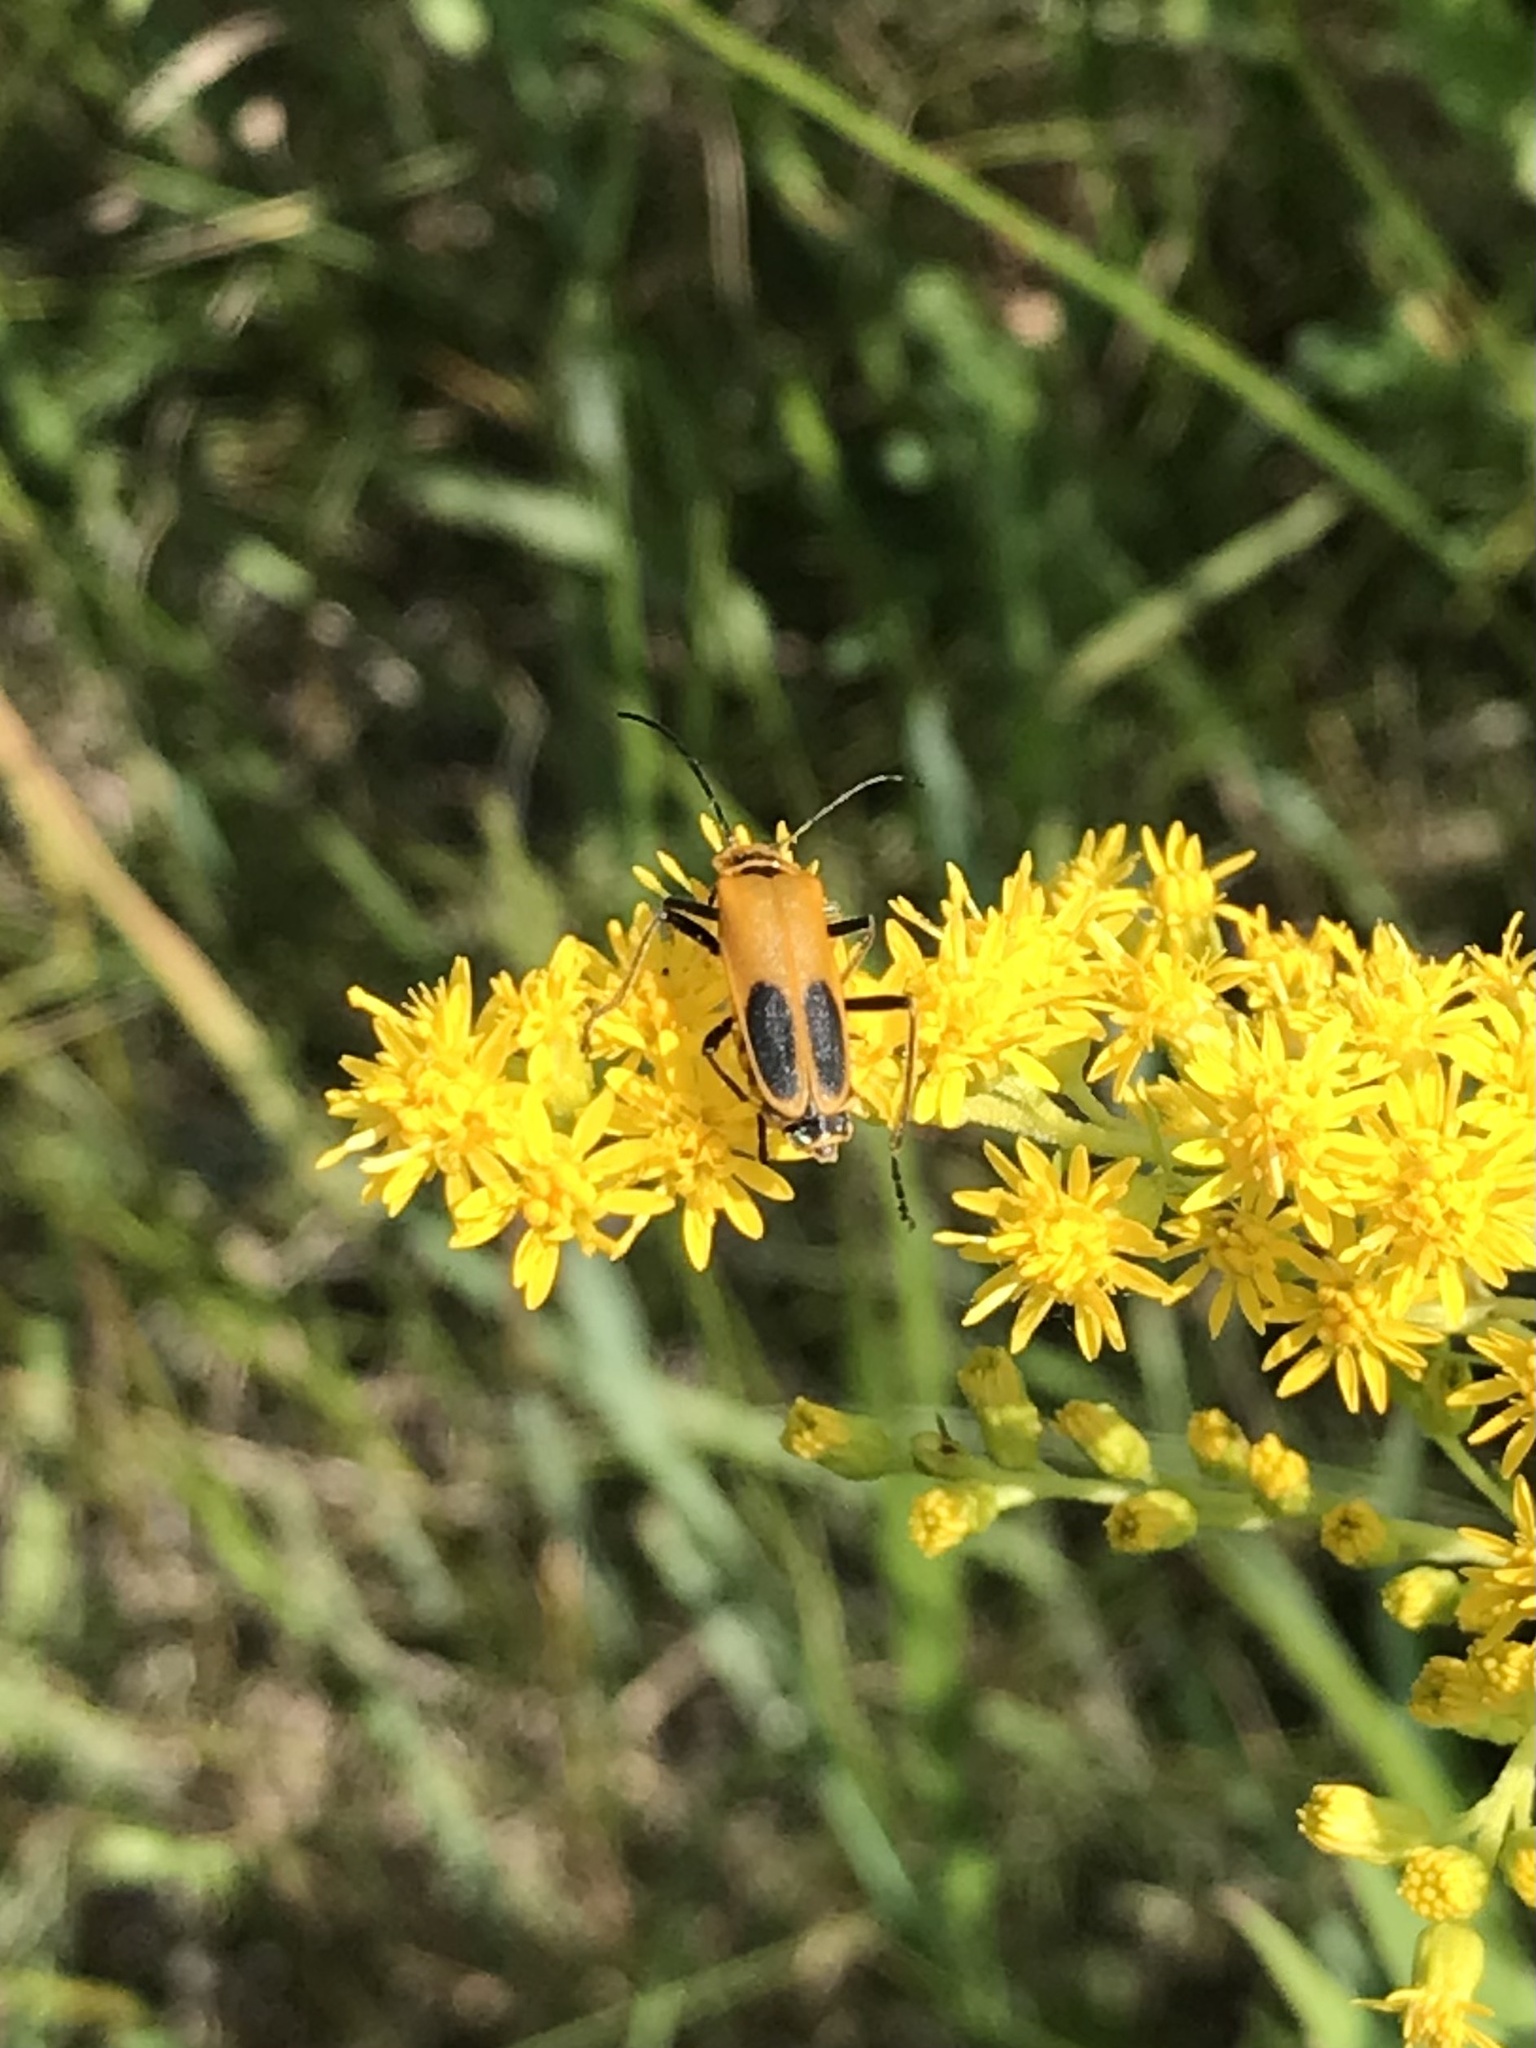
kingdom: Animalia
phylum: Arthropoda
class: Insecta
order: Coleoptera
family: Cantharidae
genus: Chauliognathus
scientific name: Chauliognathus pensylvanicus
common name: Goldenrod soldier beetle
